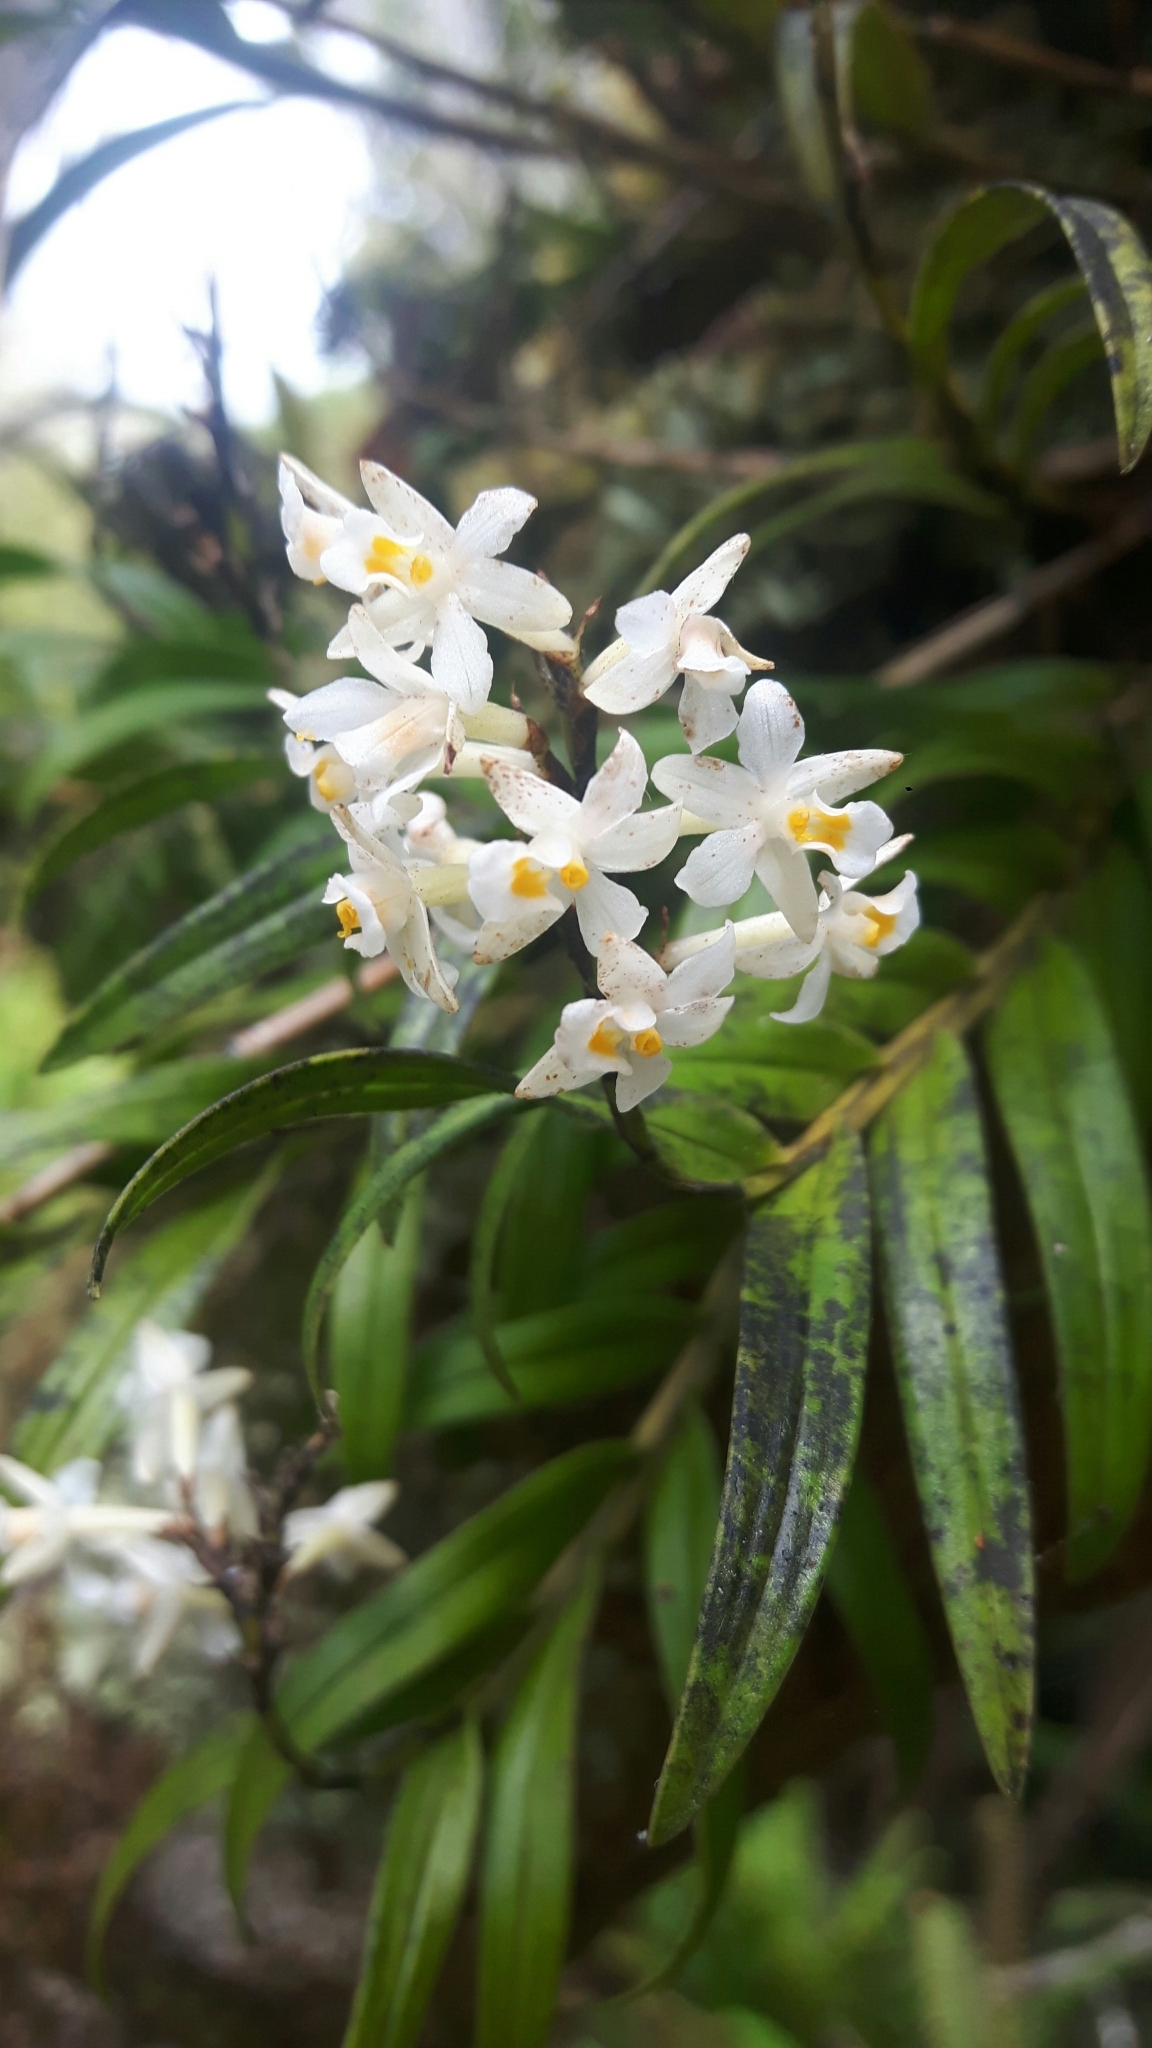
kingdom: Plantae
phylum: Tracheophyta
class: Liliopsida
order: Asparagales
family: Orchidaceae
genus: Earina
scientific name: Earina autumnalis
